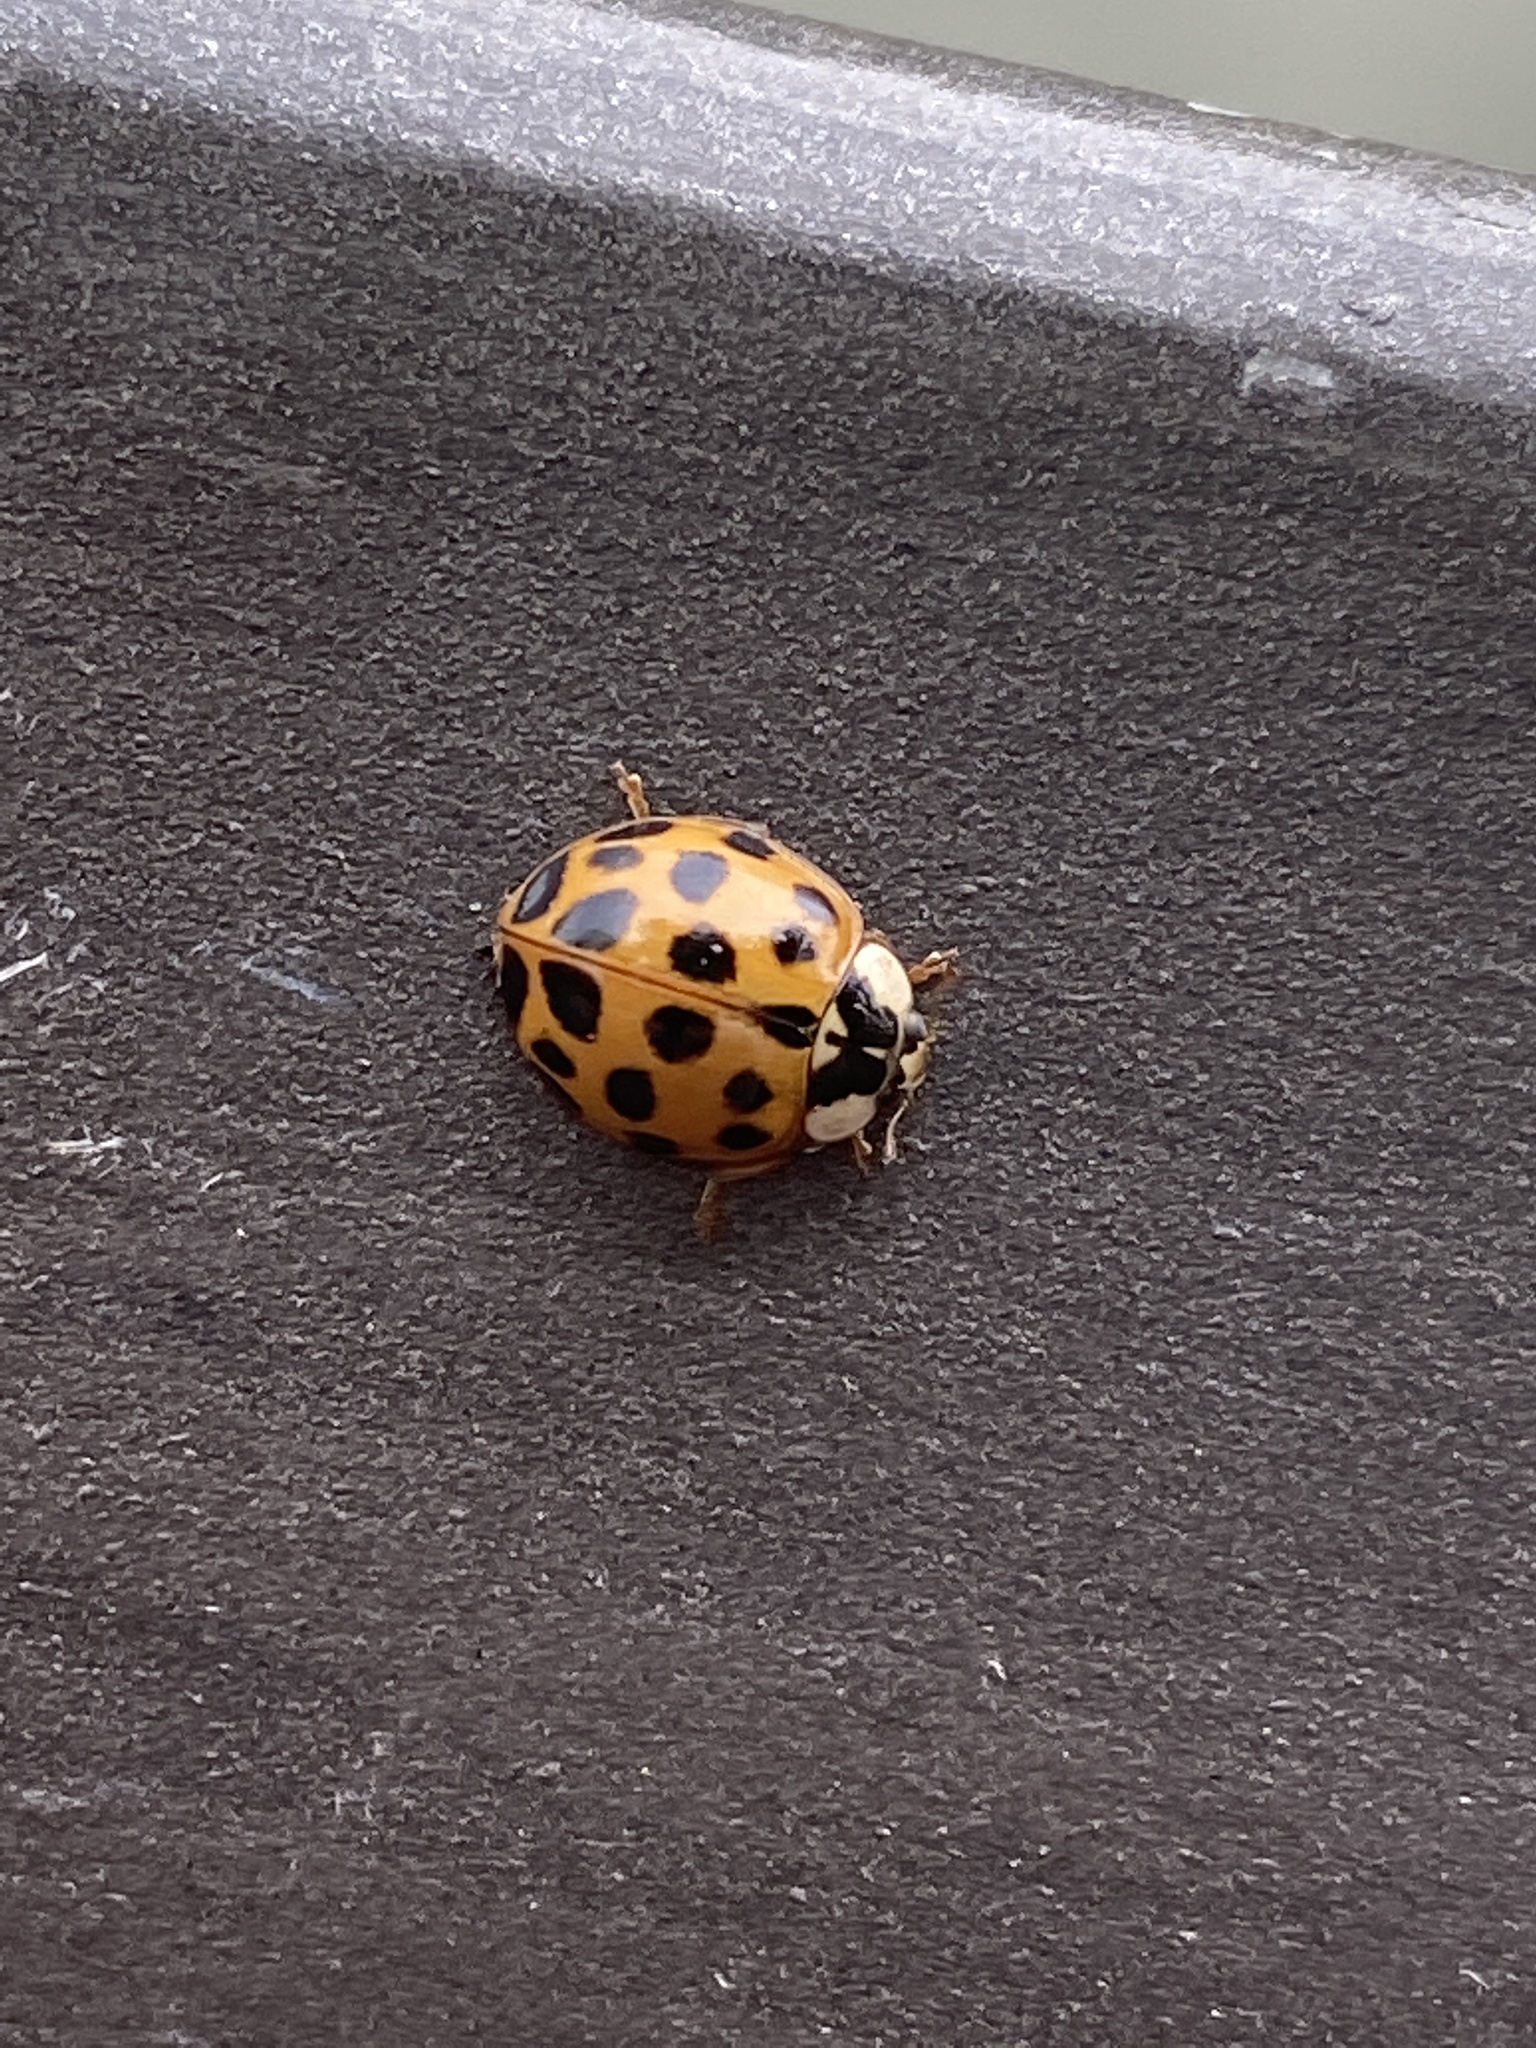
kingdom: Animalia
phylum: Arthropoda
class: Insecta
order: Coleoptera
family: Coccinellidae
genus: Harmonia
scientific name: Harmonia axyridis
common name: Harlequin ladybird
